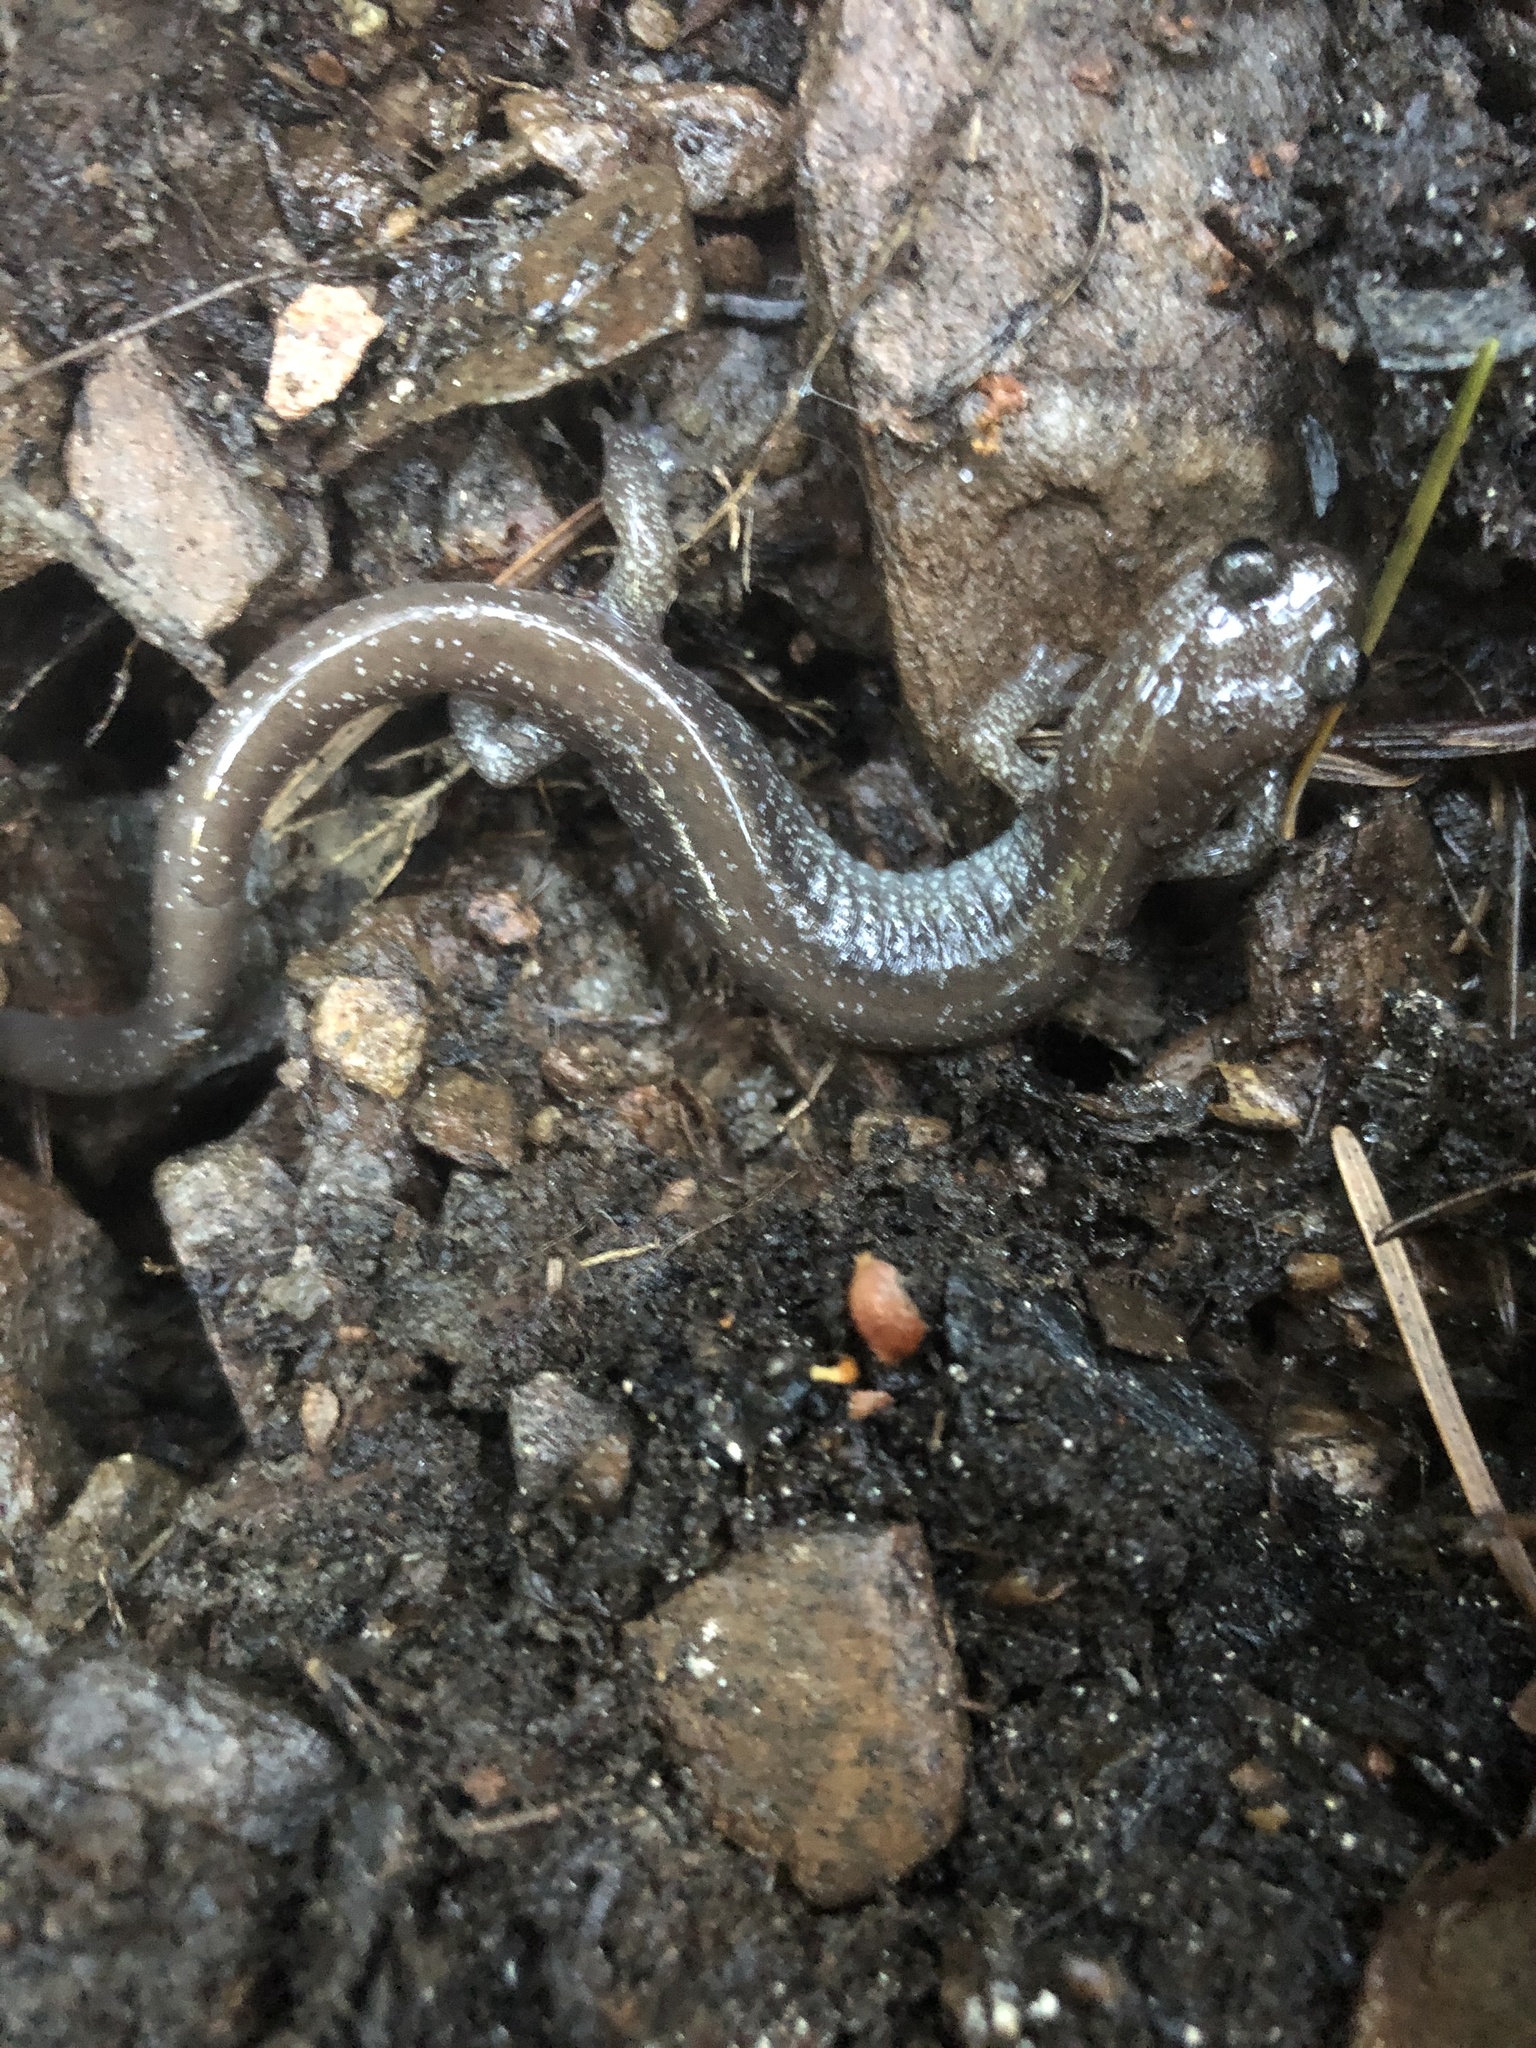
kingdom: Animalia
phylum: Chordata
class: Amphibia
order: Caudata
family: Plethodontidae
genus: Plethodon
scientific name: Plethodon stormi
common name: Siskiyou mountains salamander
